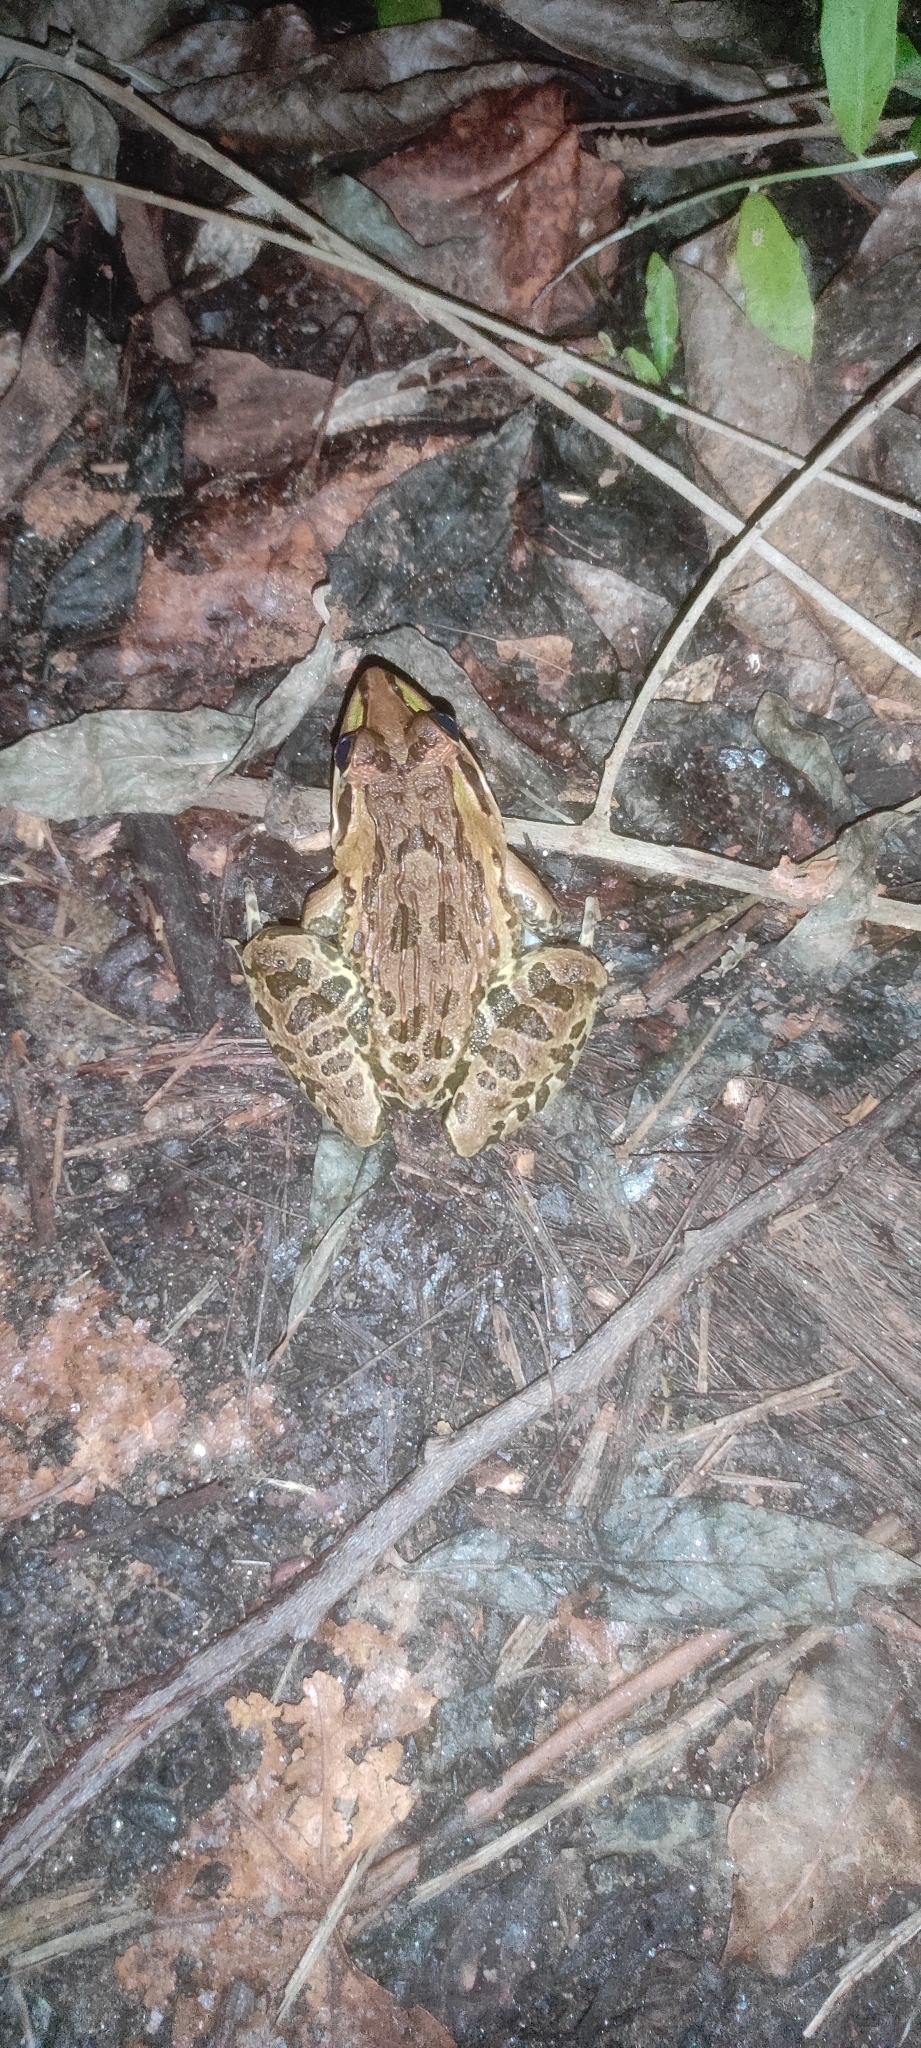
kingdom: Animalia
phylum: Chordata
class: Amphibia
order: Anura
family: Dicroglossidae
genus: Hoplobatrachus
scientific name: Hoplobatrachus tigerinus
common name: Indian bullfrog
